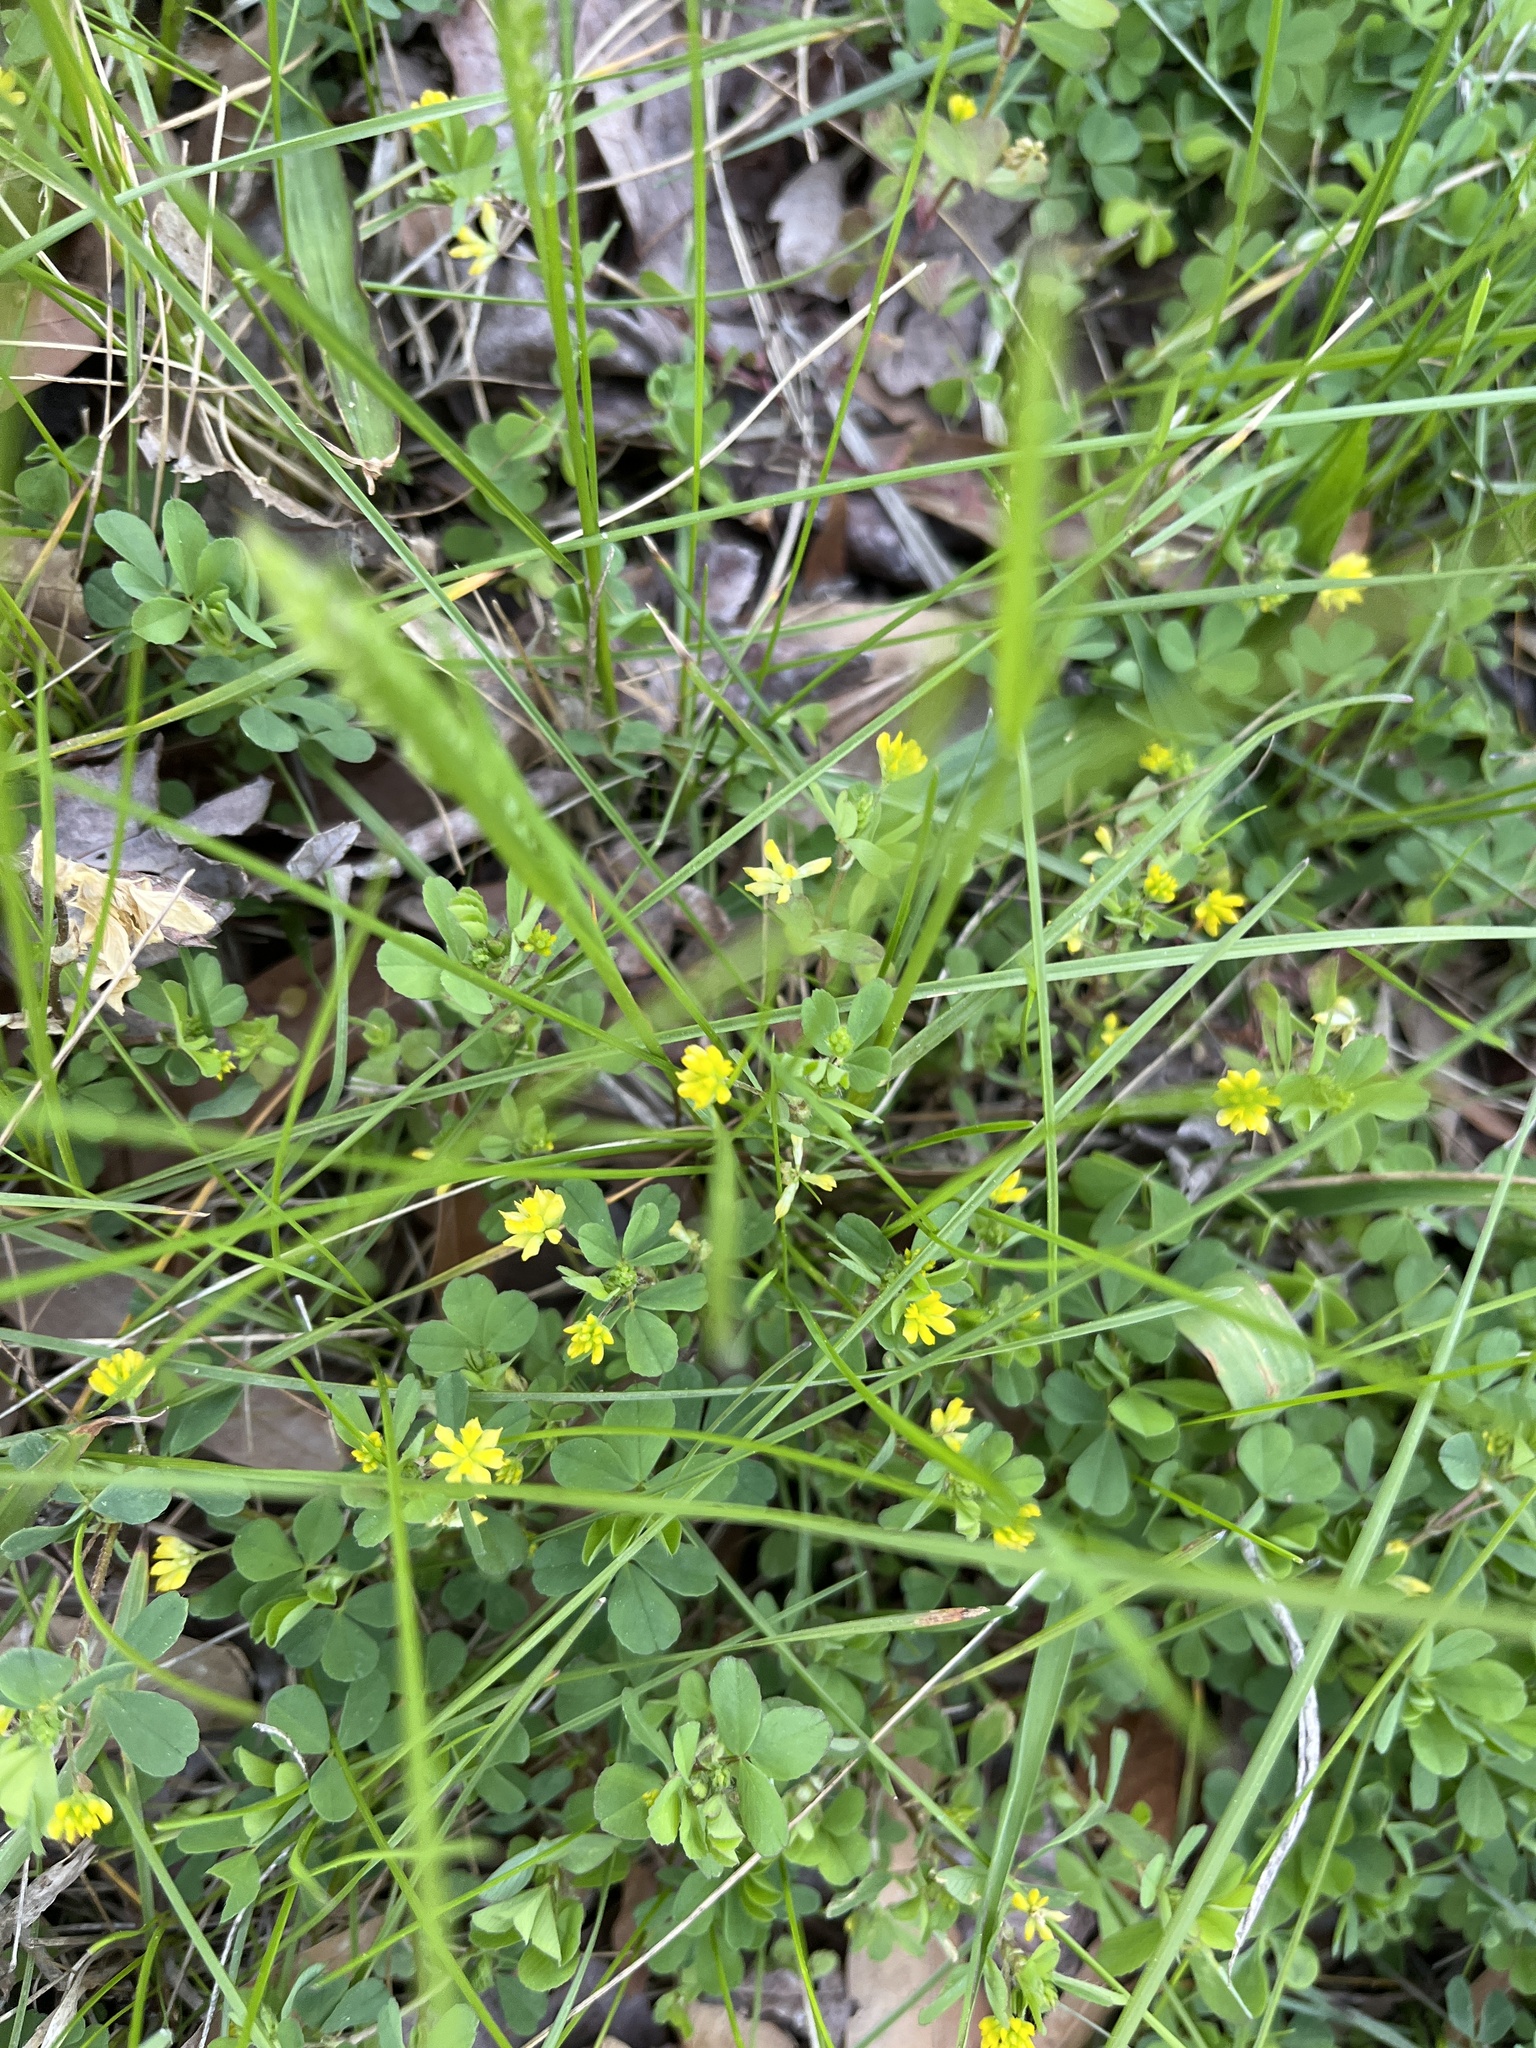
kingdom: Plantae
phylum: Tracheophyta
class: Magnoliopsida
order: Fabales
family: Fabaceae
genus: Trifolium
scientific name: Trifolium dubium
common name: Suckling clover
